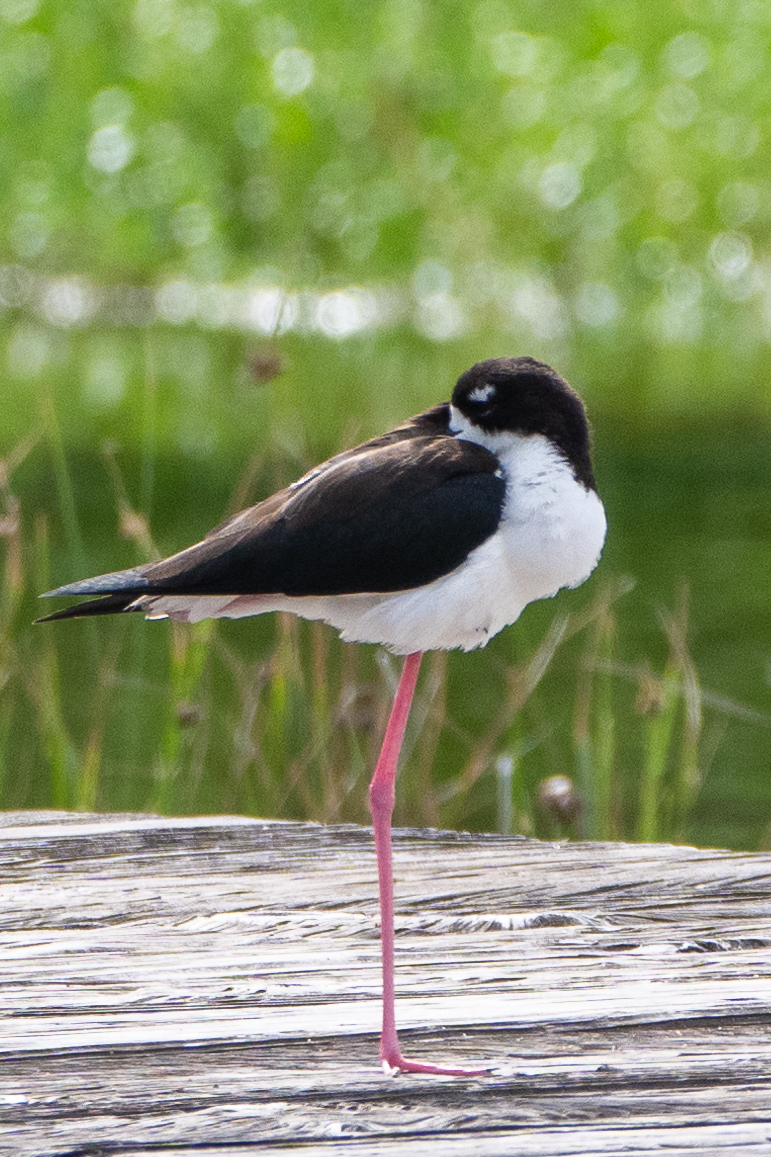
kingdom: Animalia
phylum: Chordata
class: Aves
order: Charadriiformes
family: Recurvirostridae
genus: Himantopus
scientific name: Himantopus mexicanus
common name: Black-necked stilt
